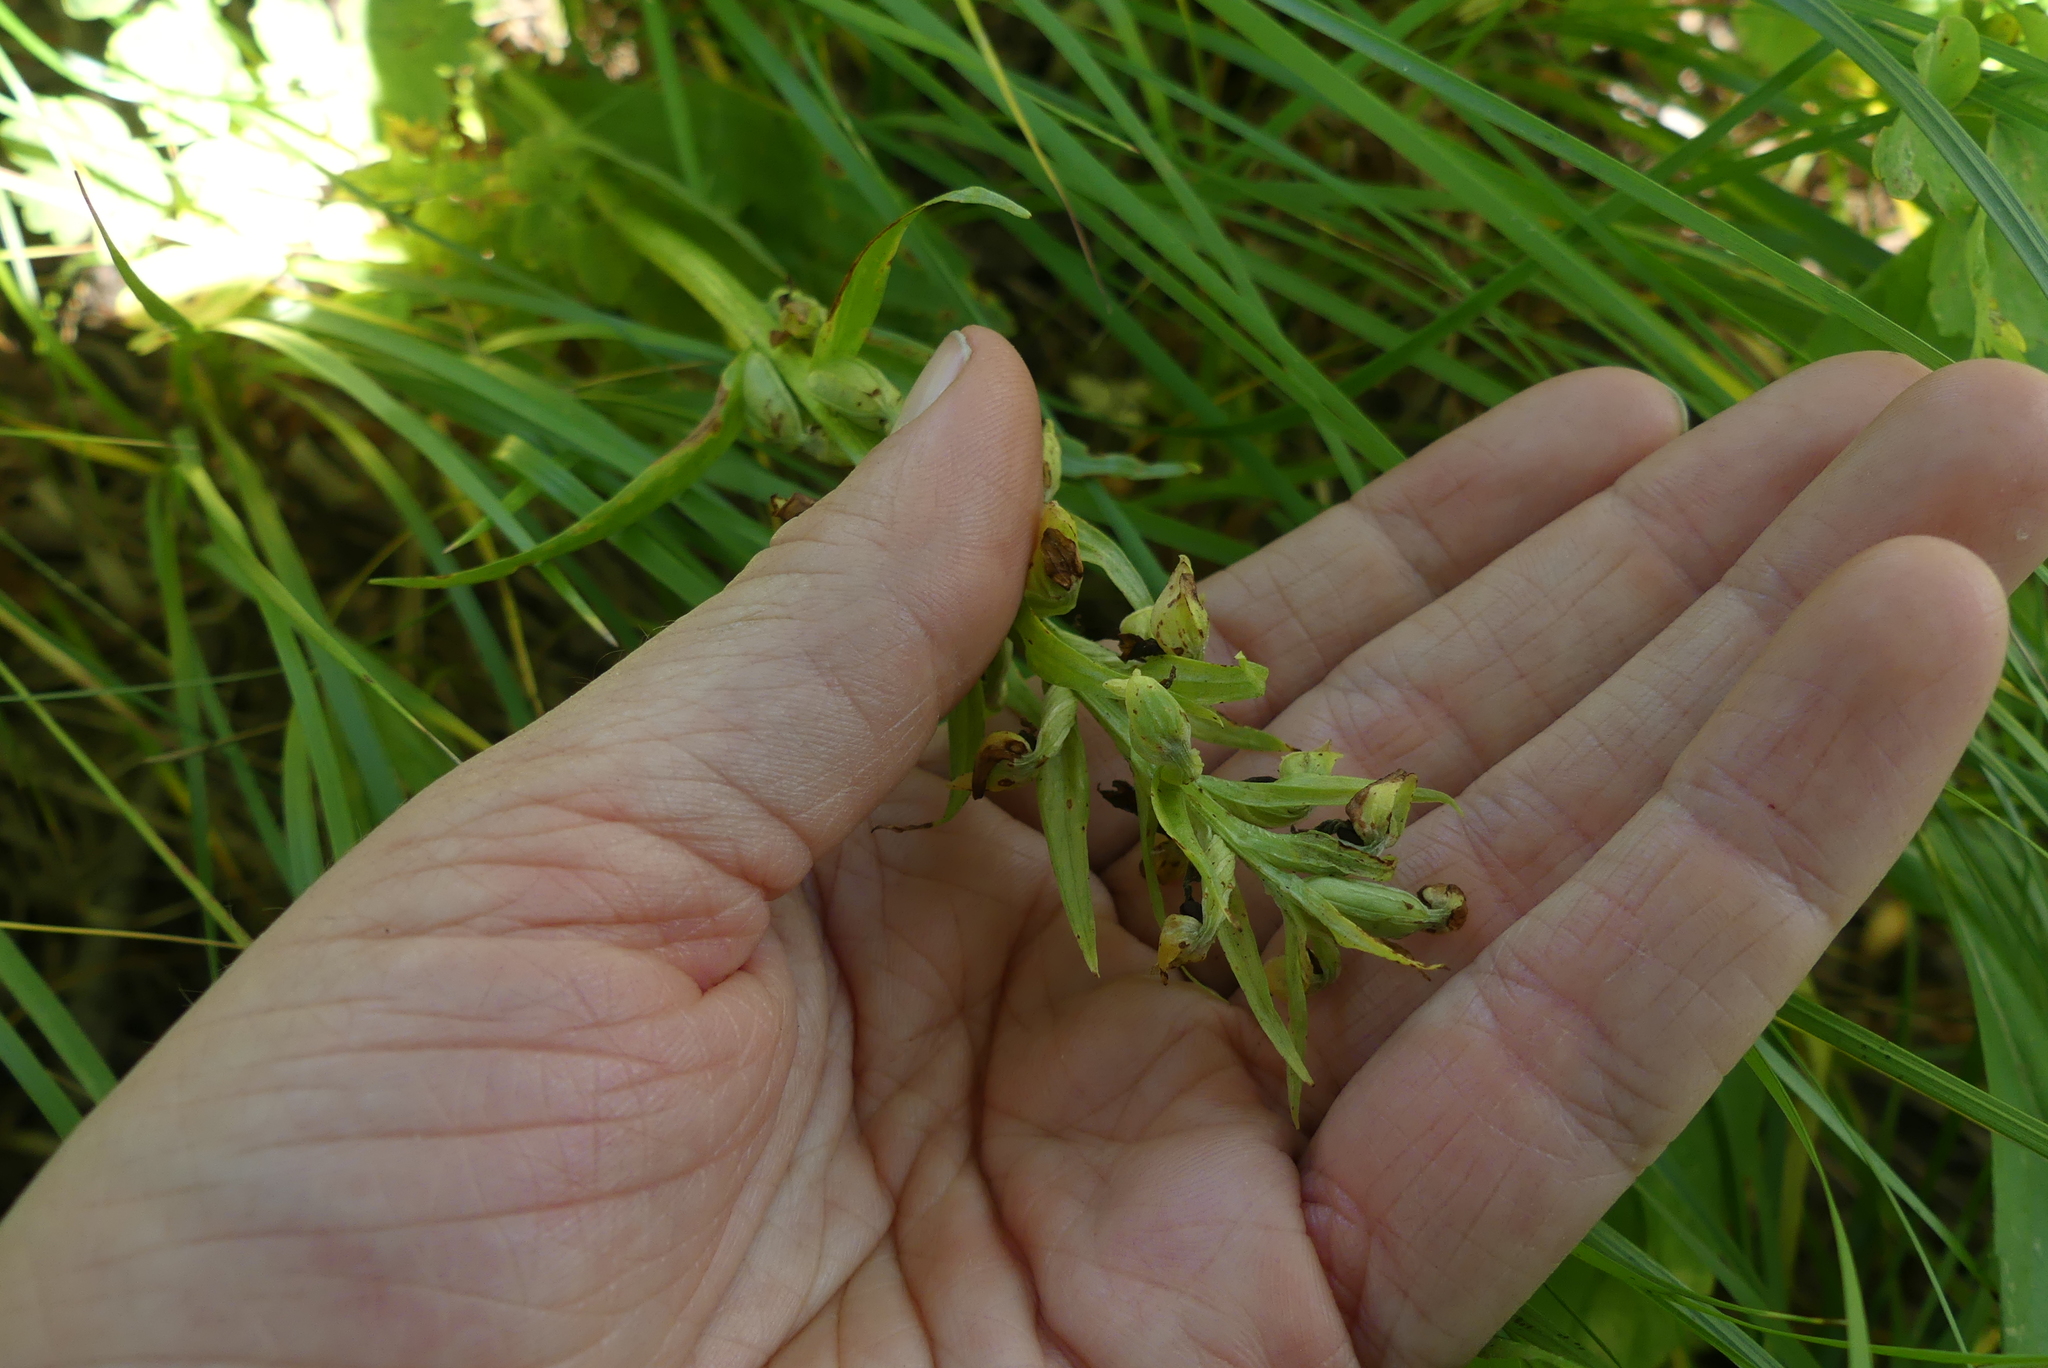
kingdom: Plantae
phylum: Tracheophyta
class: Liliopsida
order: Asparagales
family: Orchidaceae
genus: Dactylorhiza
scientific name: Dactylorhiza viridis
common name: Longbract frog orchid
